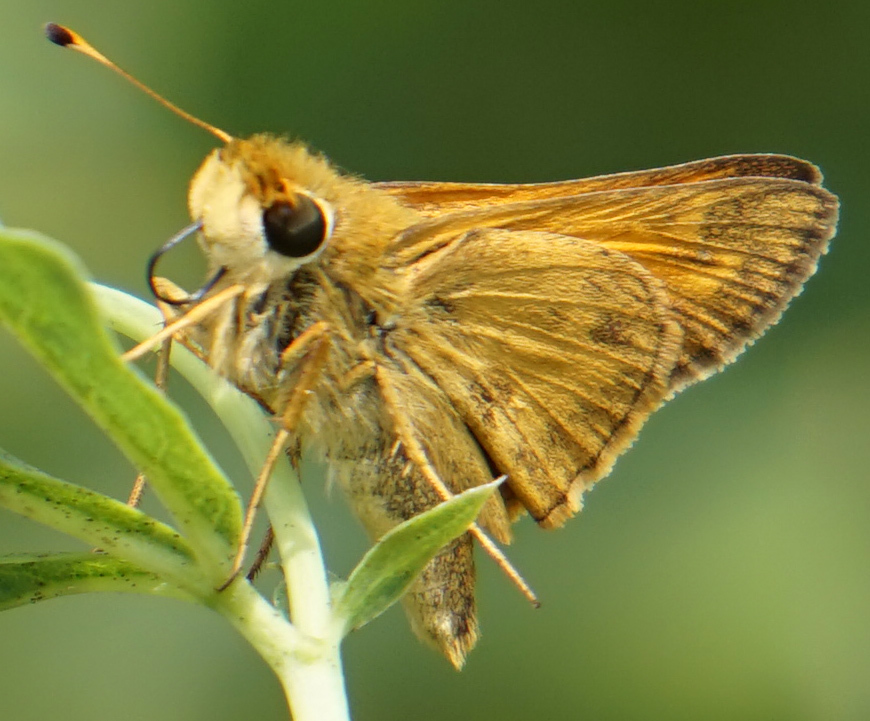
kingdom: Animalia
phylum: Arthropoda
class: Insecta
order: Lepidoptera
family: Hesperiidae
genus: Atalopedes
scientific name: Atalopedes
